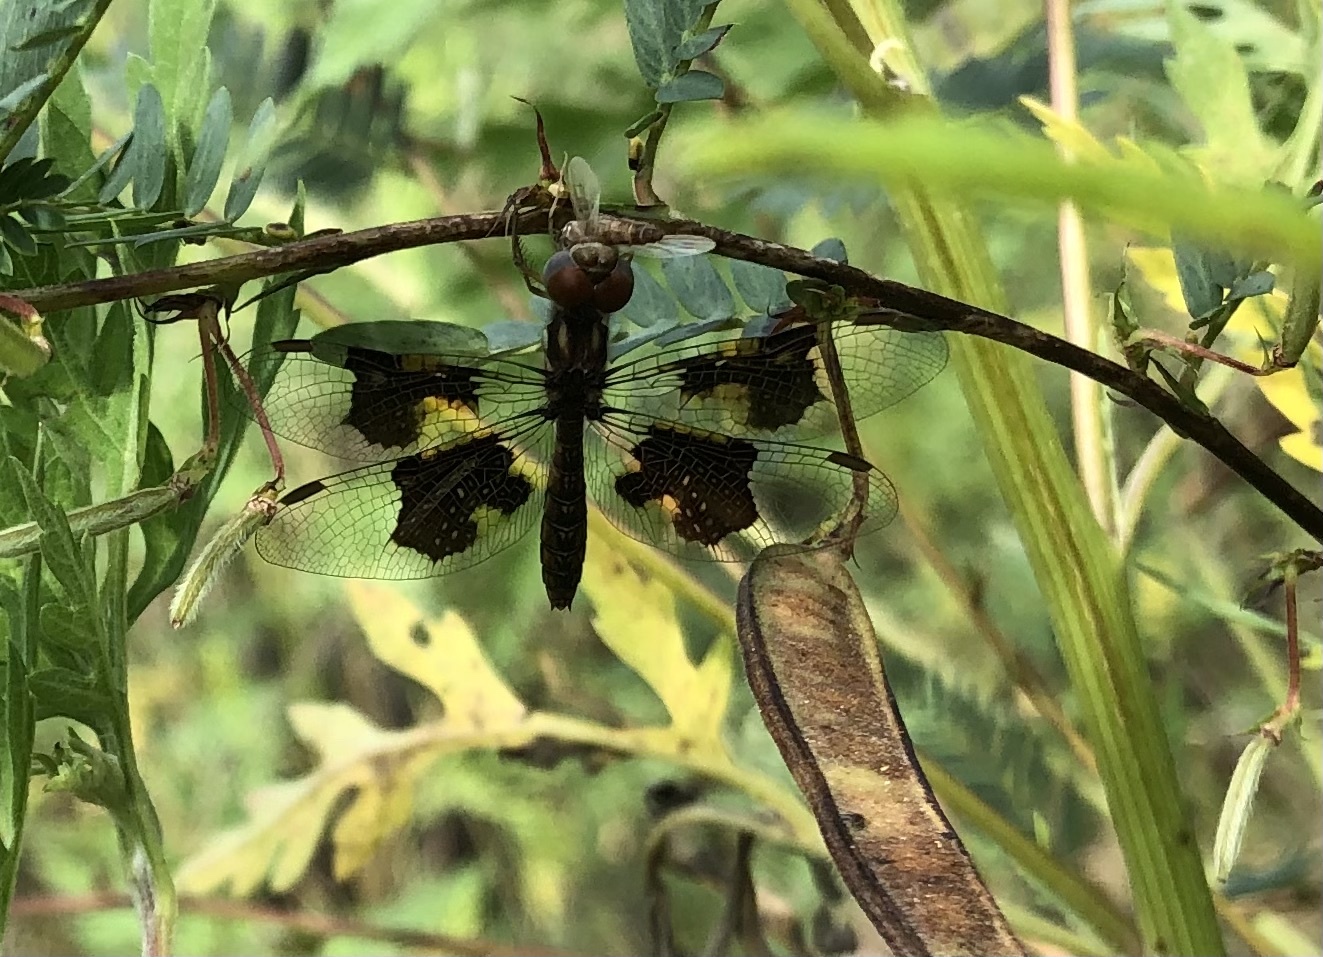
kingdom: Animalia
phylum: Arthropoda
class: Insecta
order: Odonata
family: Libellulidae
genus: Perithemis
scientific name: Perithemis tenera
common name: Eastern amberwing
